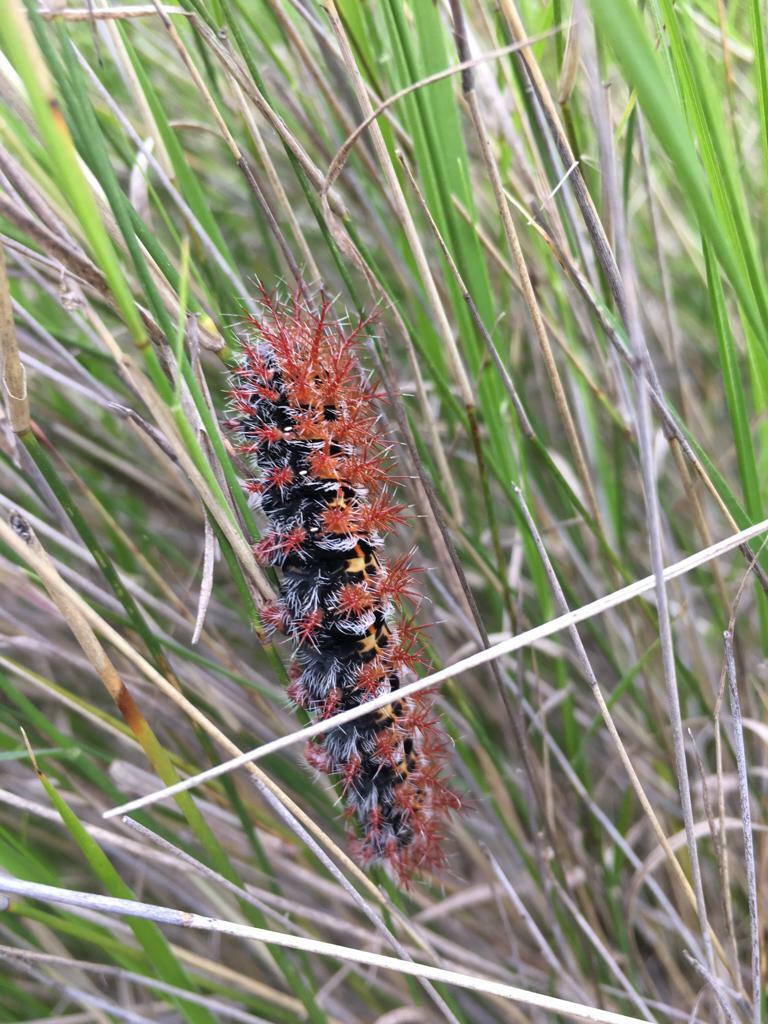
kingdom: Animalia
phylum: Arthropoda
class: Insecta
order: Lepidoptera
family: Saturniidae
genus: Ormiscodes
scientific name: Ormiscodes cinnamomea
